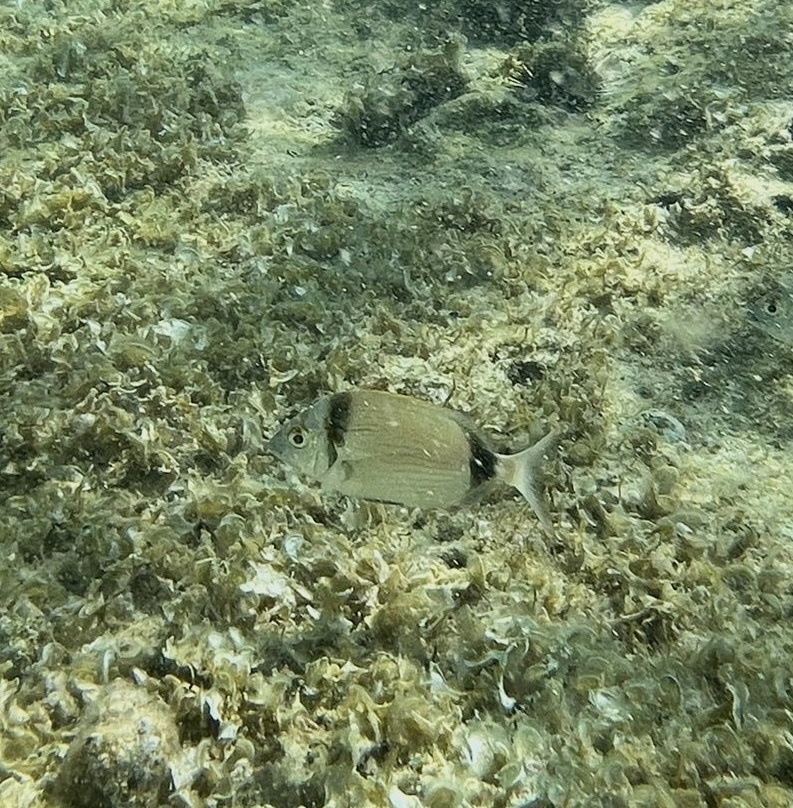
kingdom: Animalia
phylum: Chordata
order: Perciformes
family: Sparidae
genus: Diplodus
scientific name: Diplodus vulgaris
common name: Common two-banded seabream
